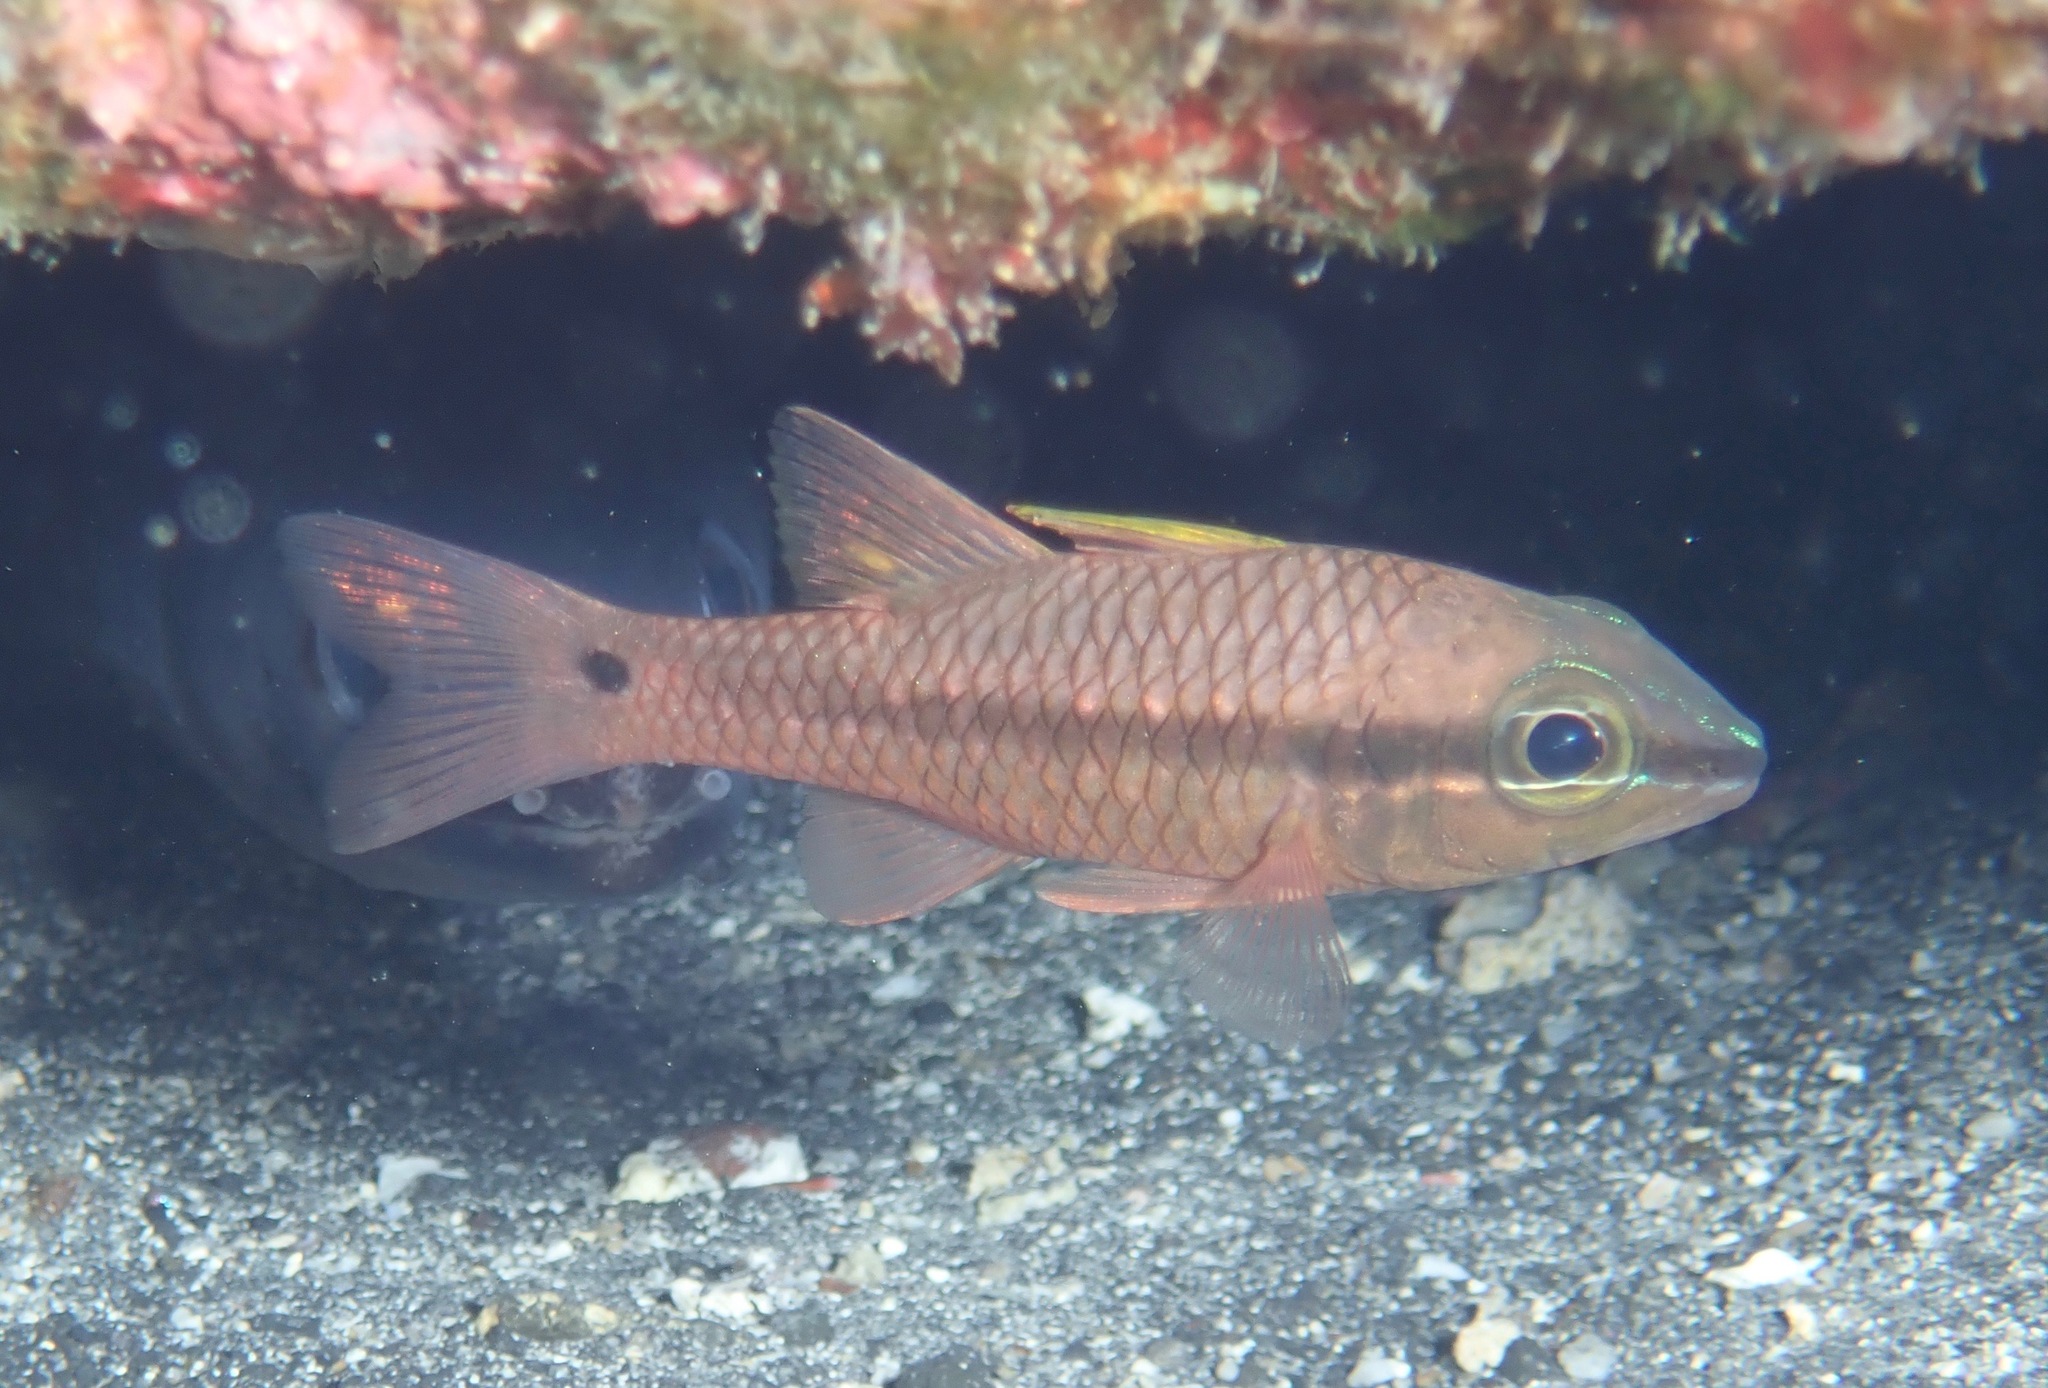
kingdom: Animalia
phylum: Chordata
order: Perciformes
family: Apogonidae
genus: Pristiapogon
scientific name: Pristiapogon kallopterus
